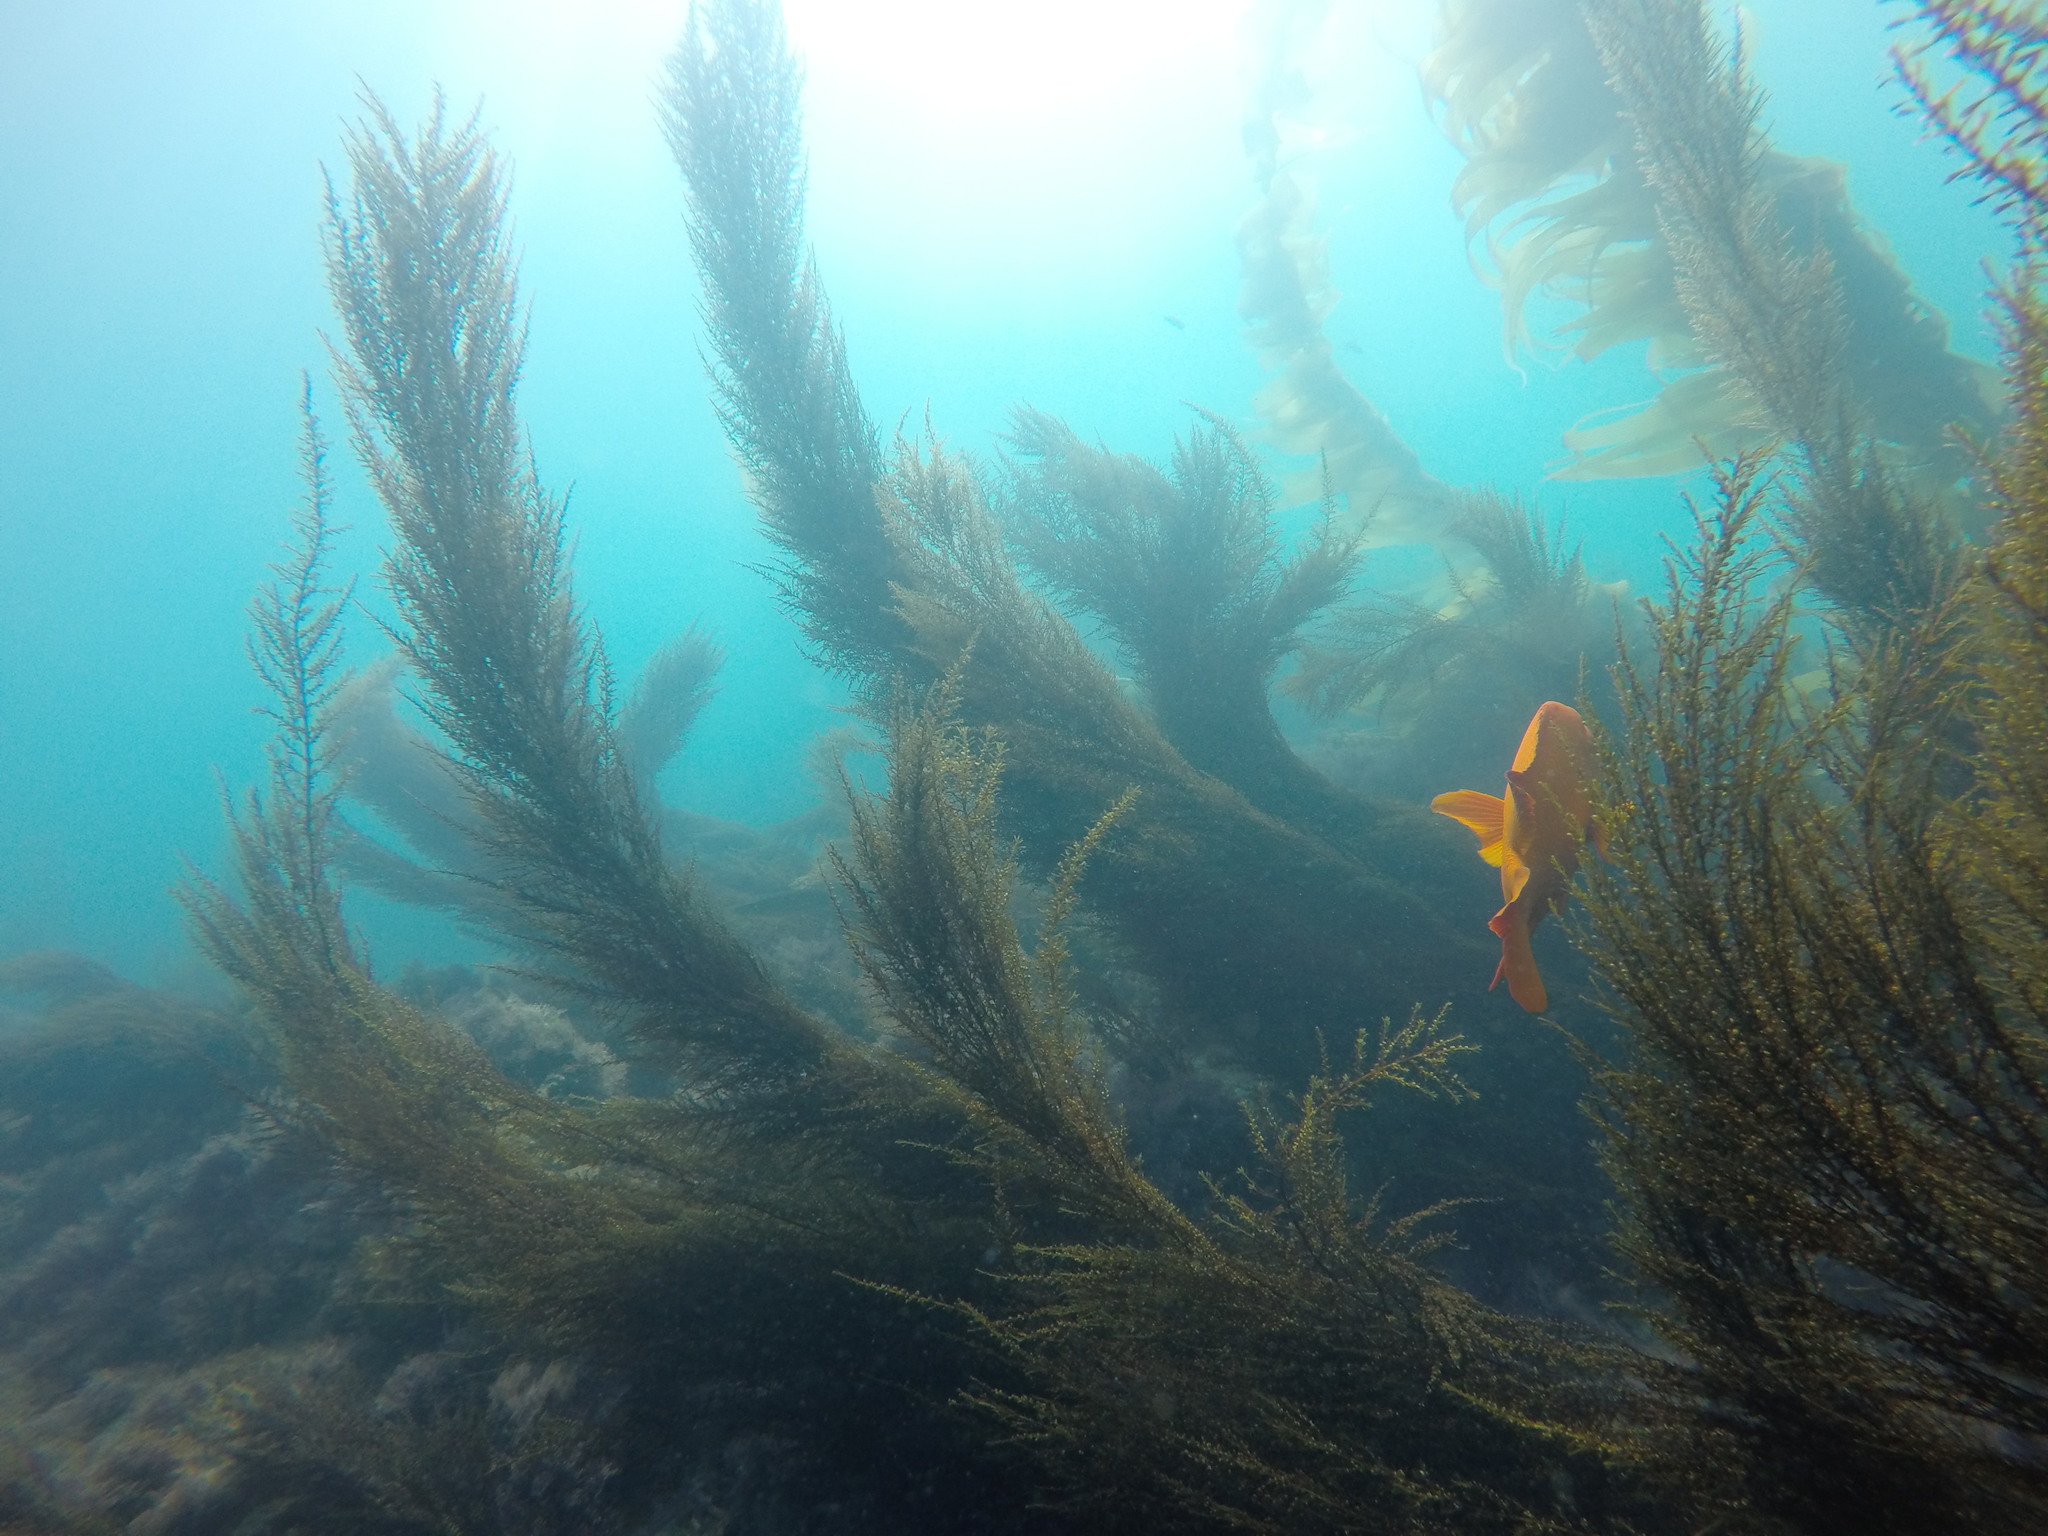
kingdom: Chromista
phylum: Ochrophyta
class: Phaeophyceae
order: Fucales
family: Sargassaceae
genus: Sargassum
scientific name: Sargassum muticum
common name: Japweed
